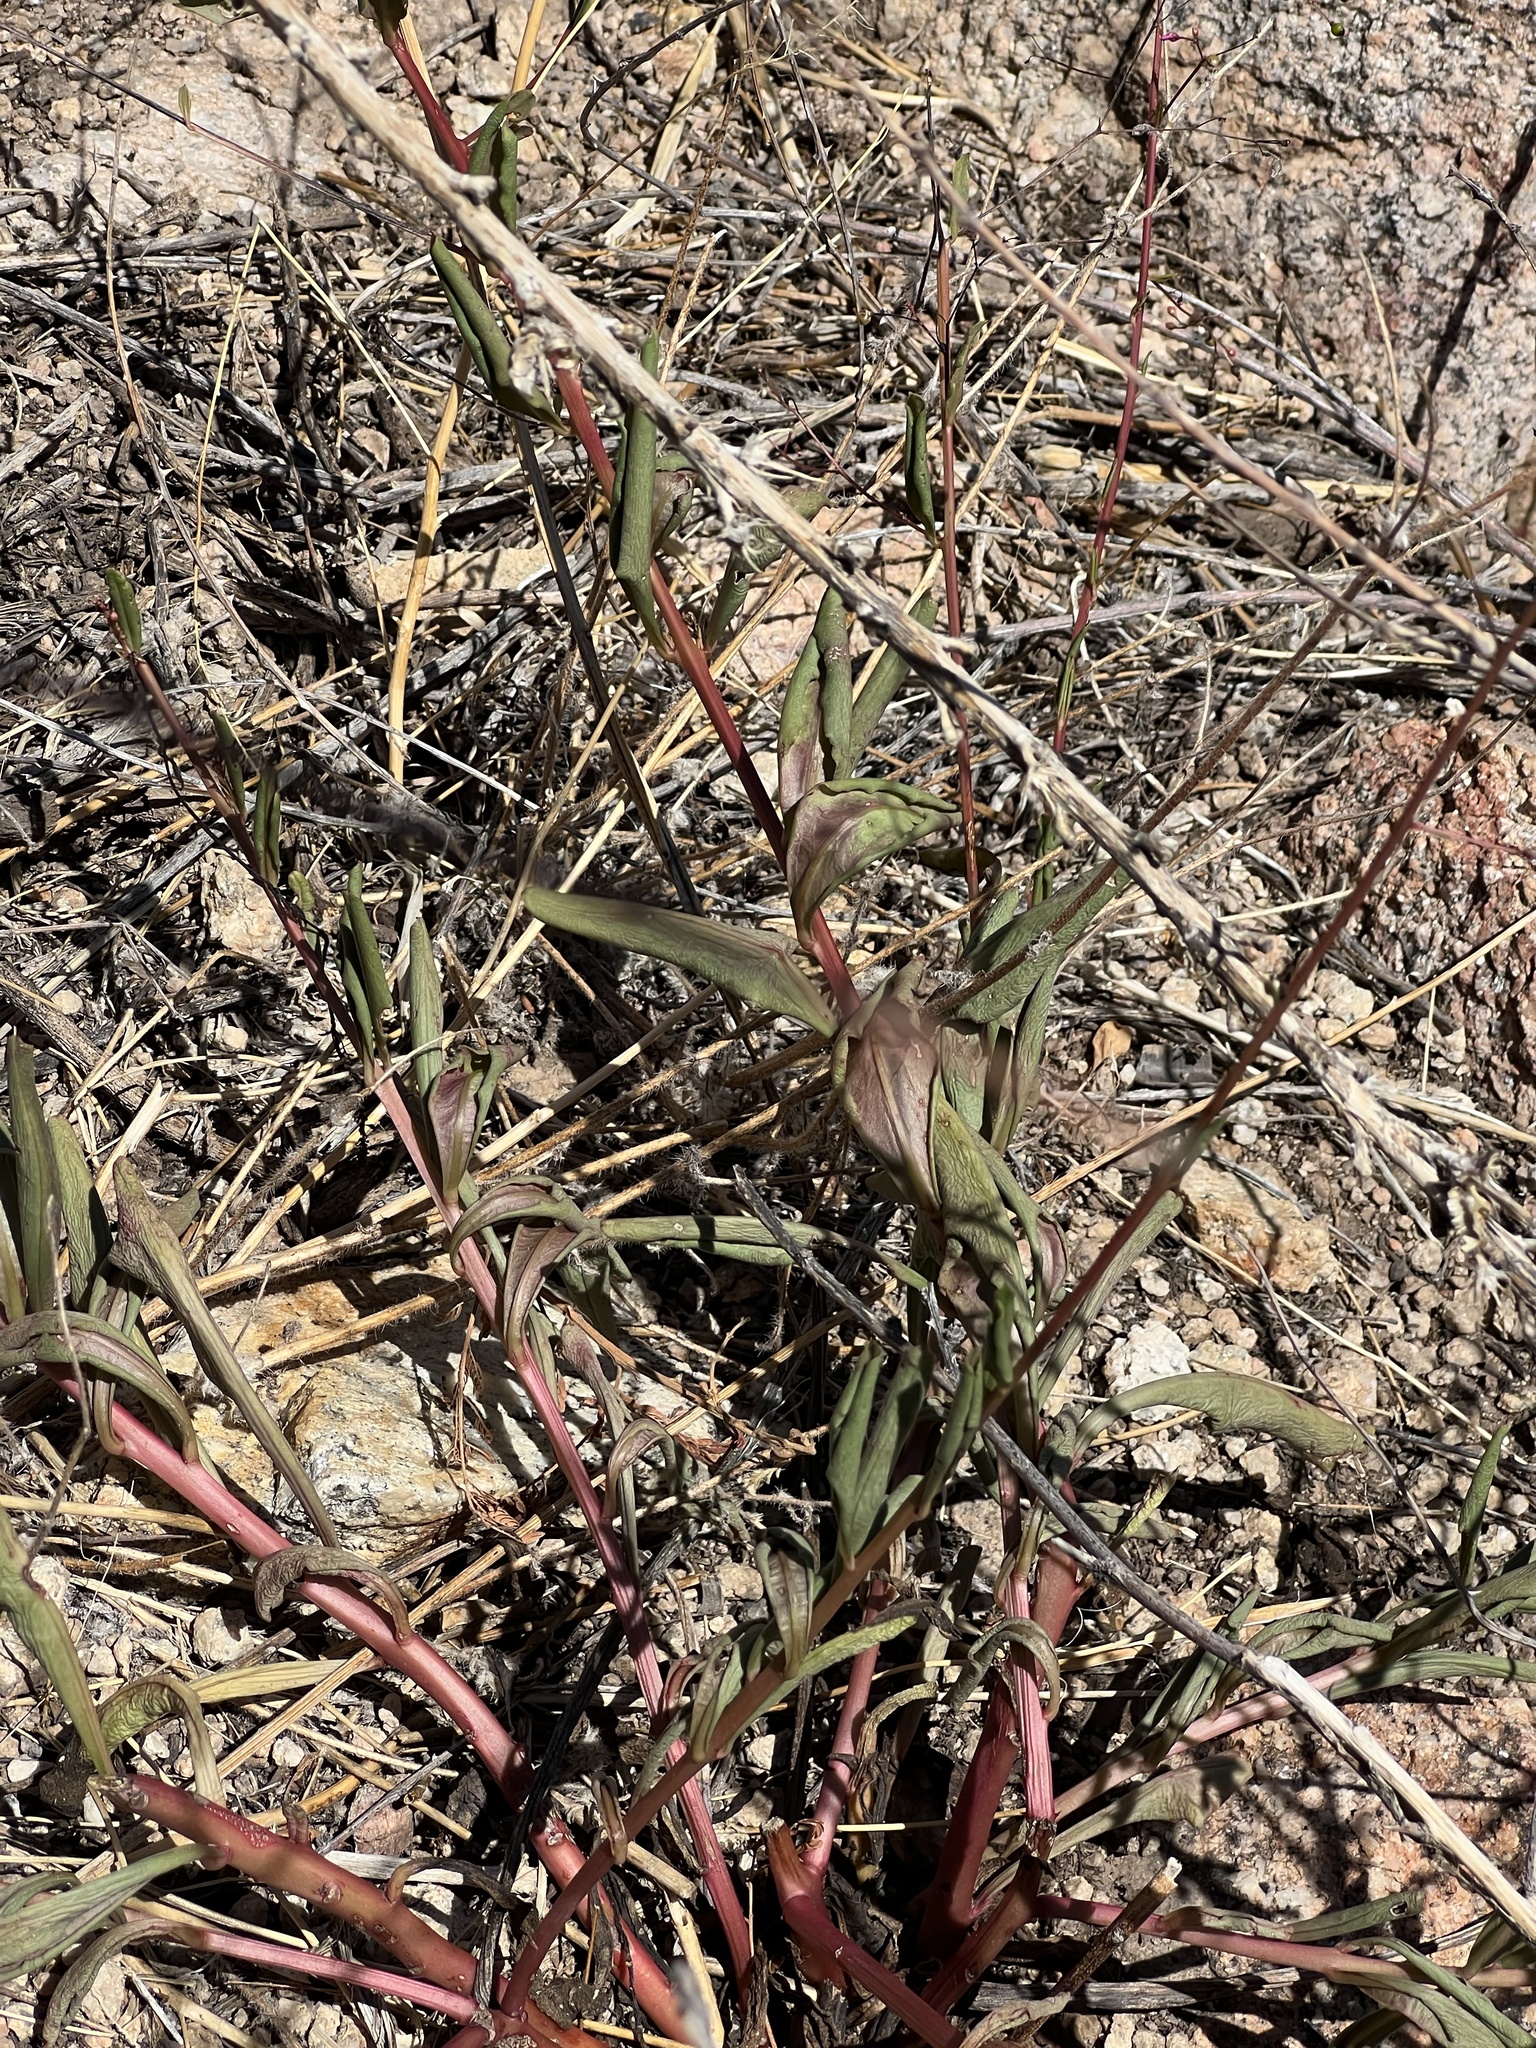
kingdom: Plantae
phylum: Tracheophyta
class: Magnoliopsida
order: Boraginales
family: Boraginaceae
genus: Plagiobothrys
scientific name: Plagiobothrys arizonicus
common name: Arizona popcorn-flower
